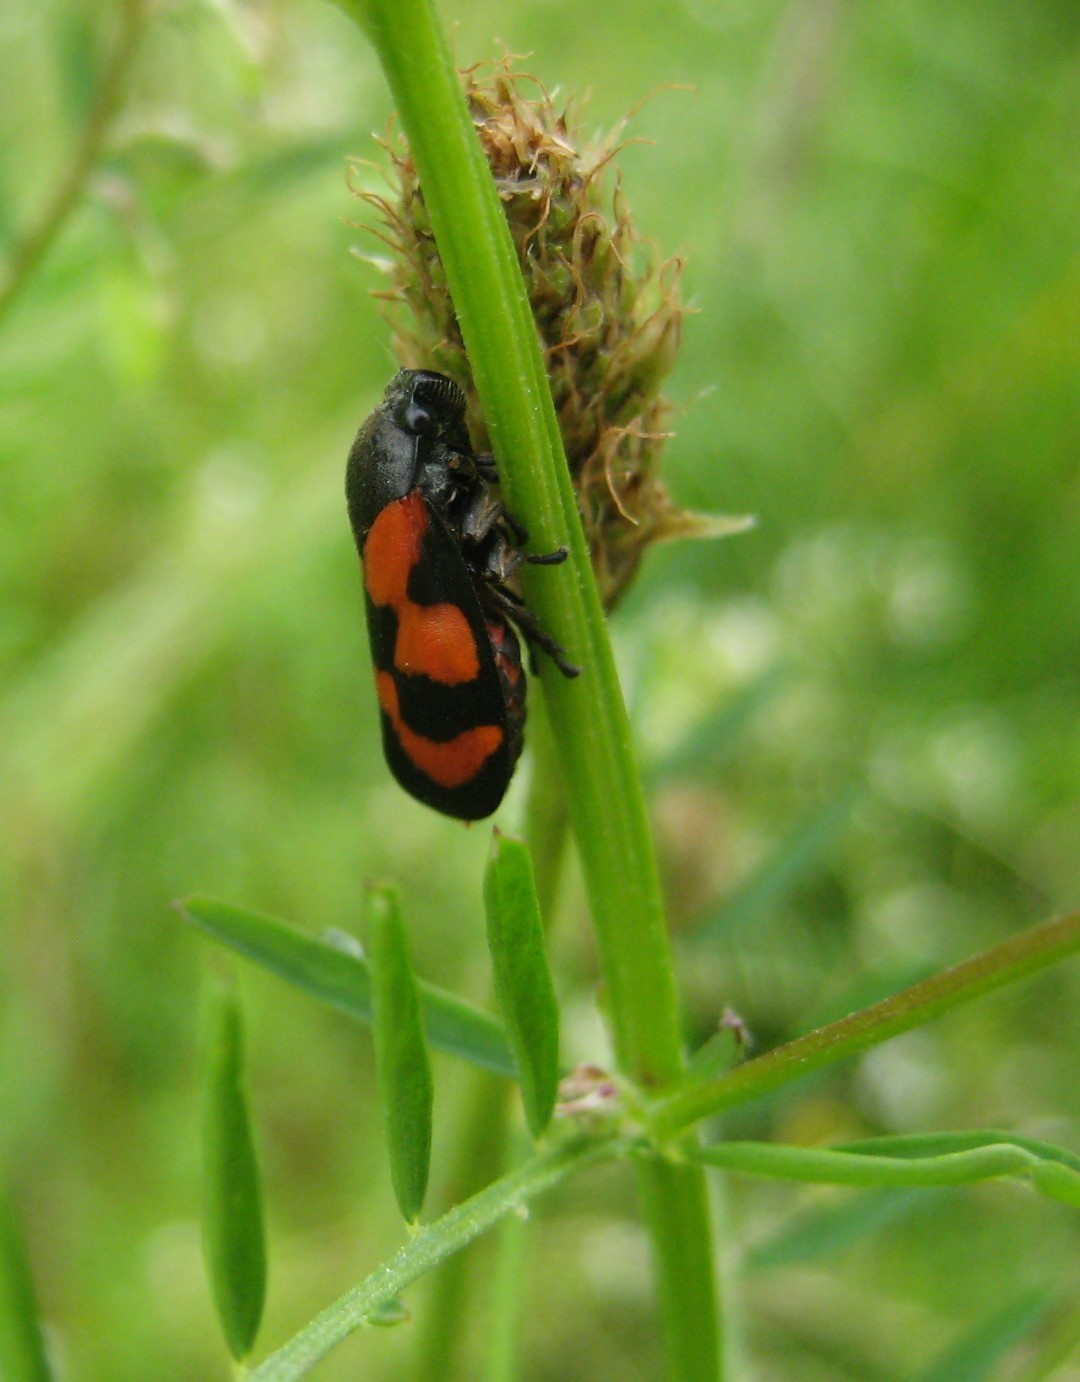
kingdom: Animalia
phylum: Arthropoda
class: Insecta
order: Hemiptera
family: Cercopidae
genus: Cercopis
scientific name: Cercopis vulnerata
